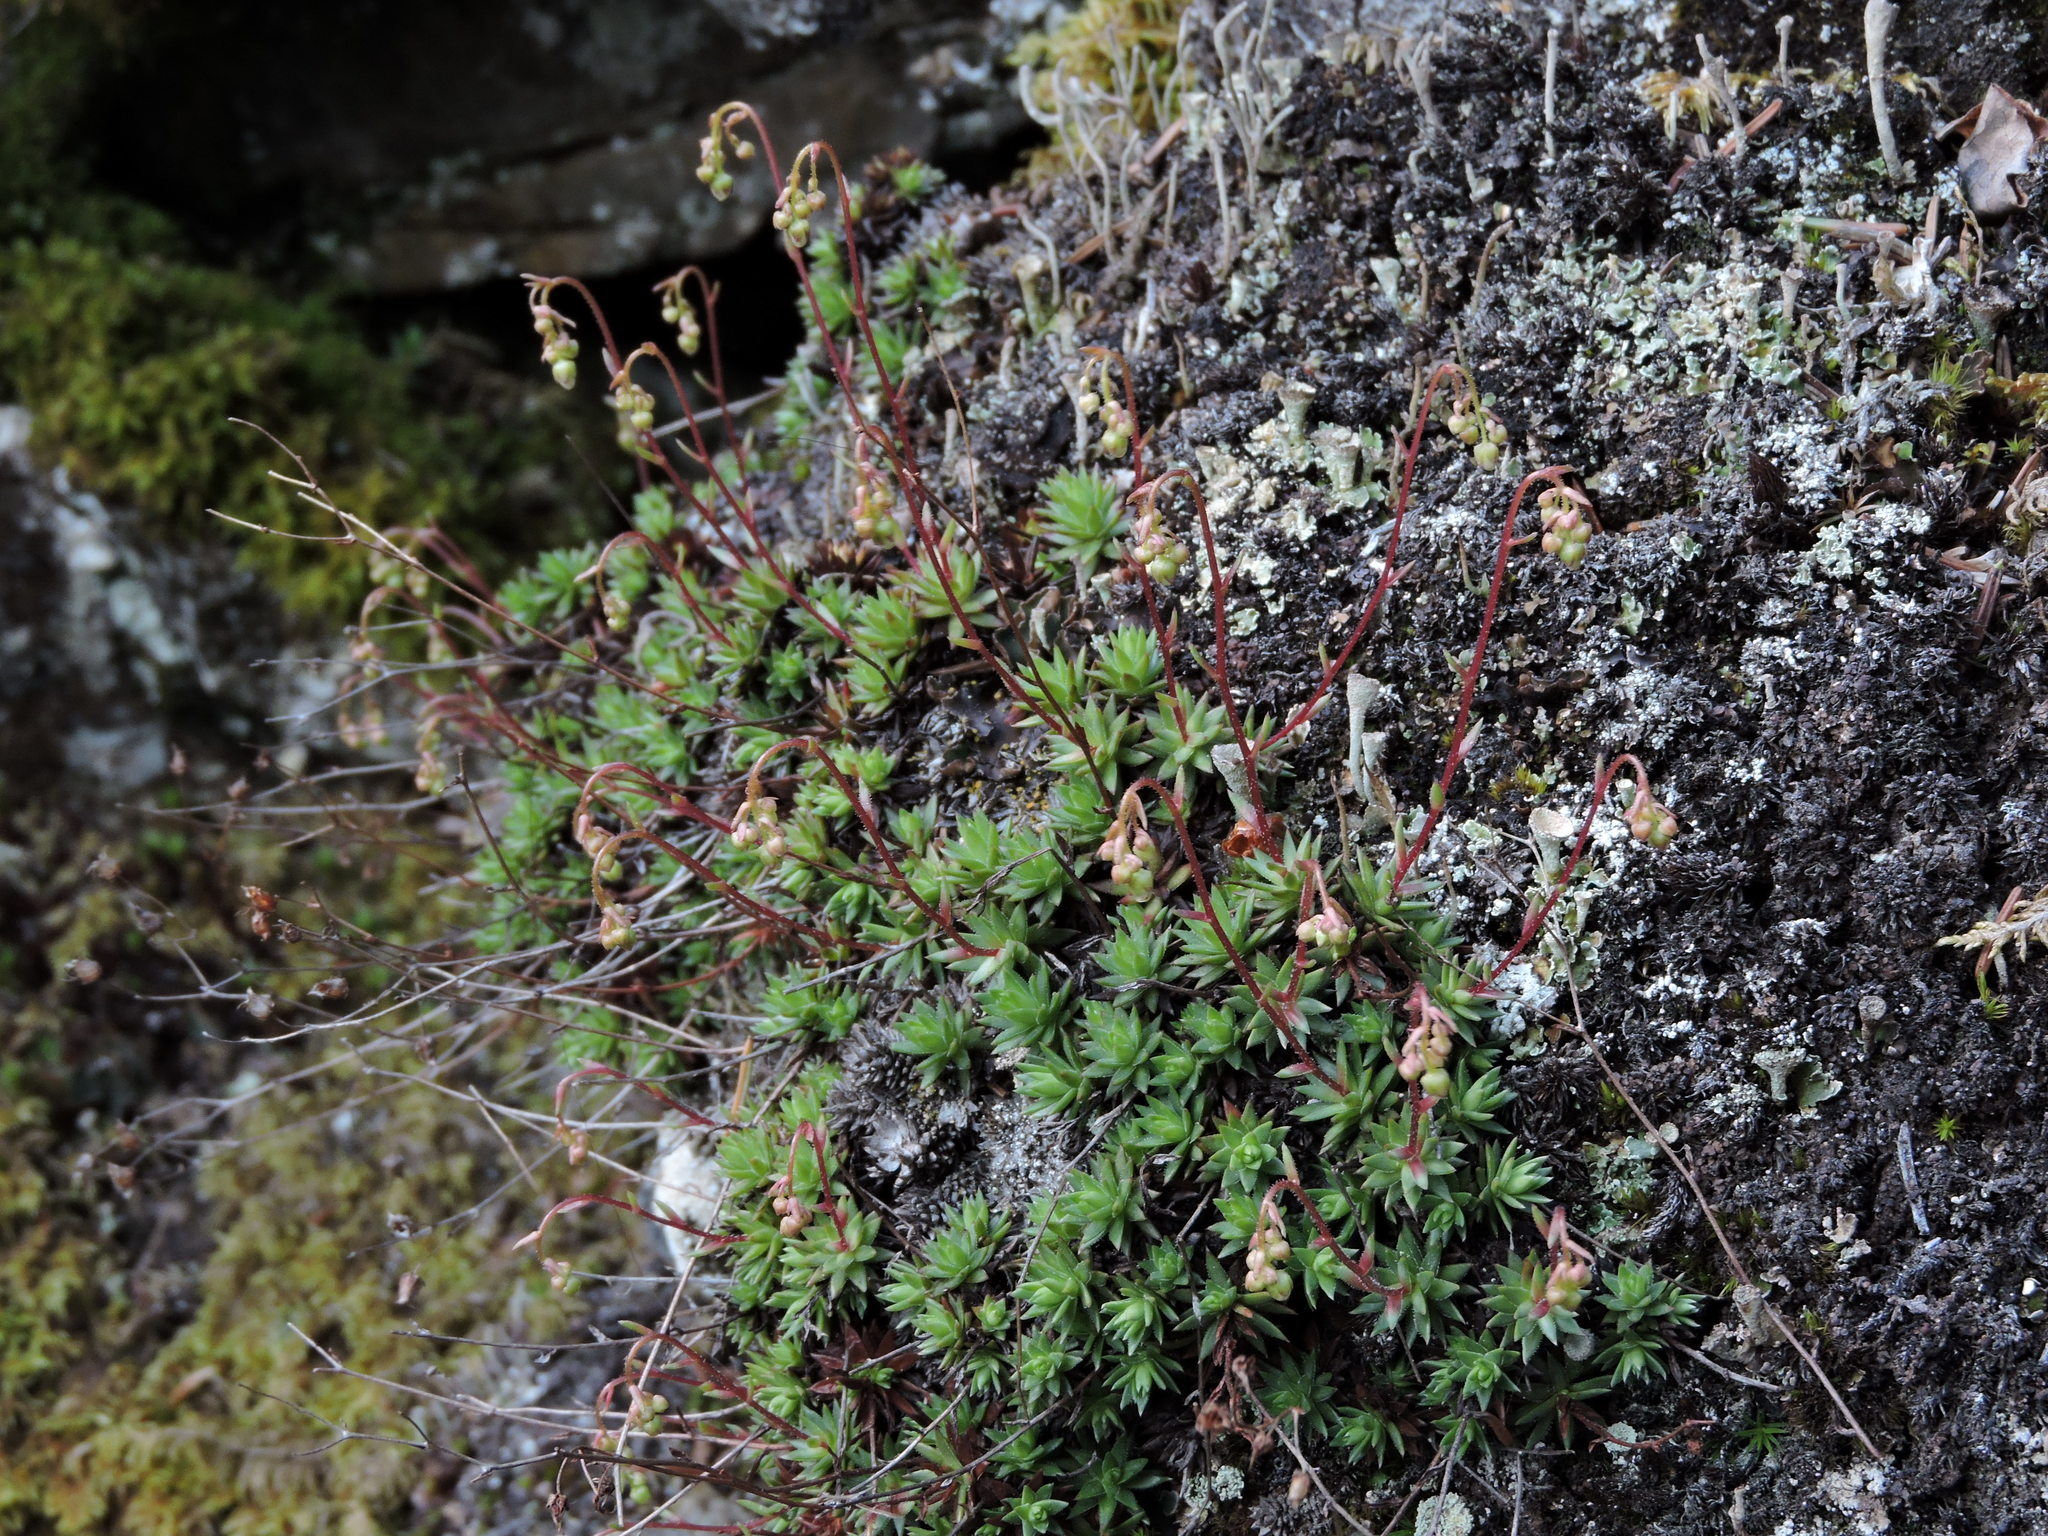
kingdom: Plantae
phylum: Tracheophyta
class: Magnoliopsida
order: Saxifragales
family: Saxifragaceae
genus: Saxifraga
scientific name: Saxifraga bronchialis
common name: Matted saxifrage
